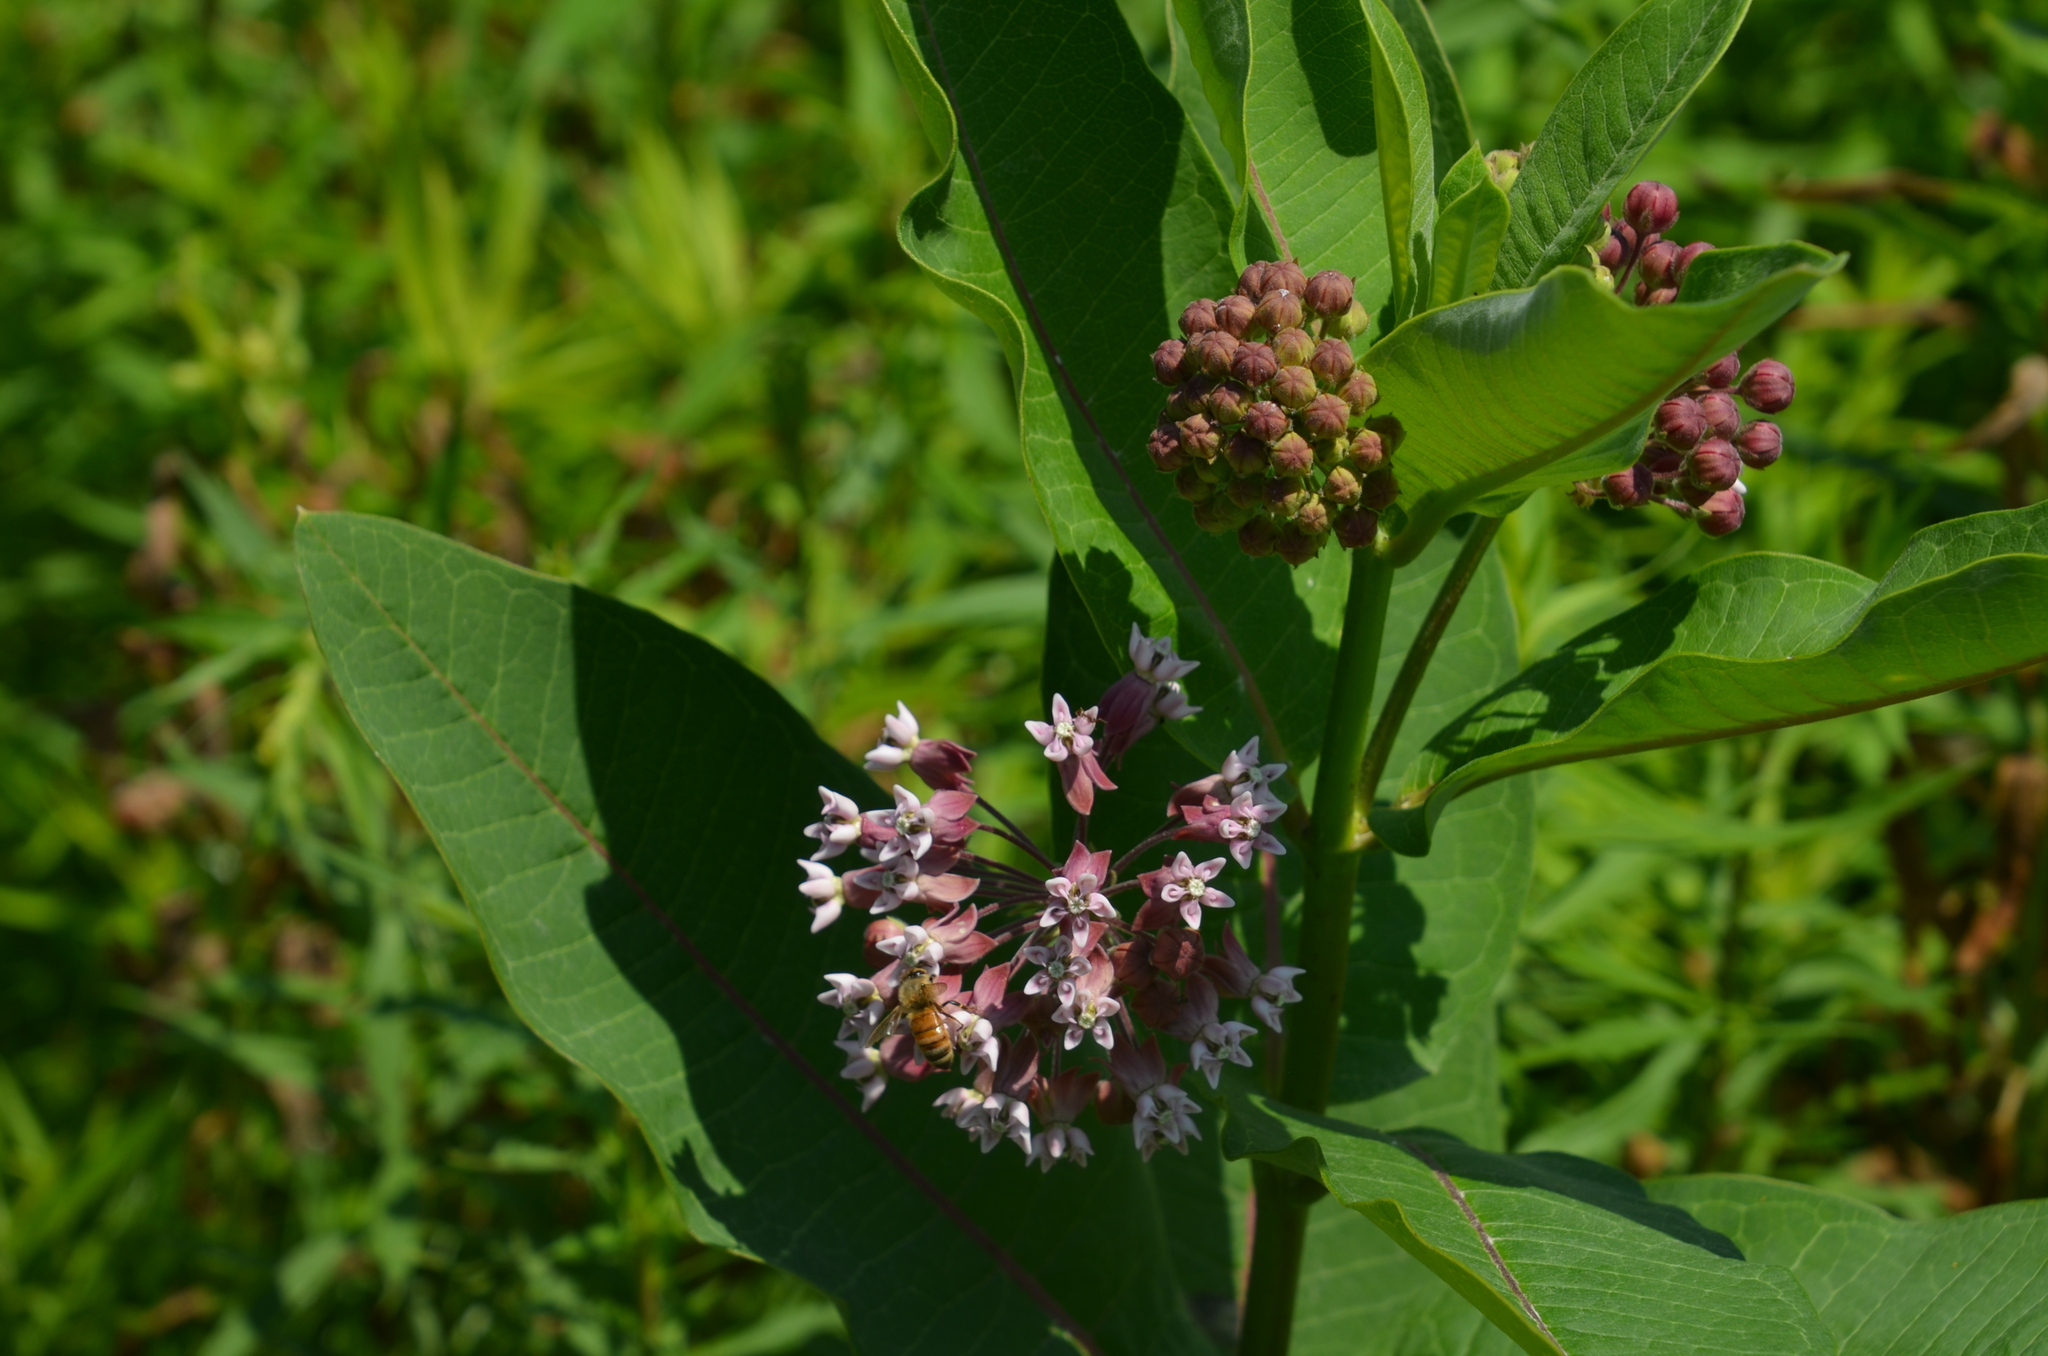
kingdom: Plantae
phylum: Tracheophyta
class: Magnoliopsida
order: Gentianales
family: Apocynaceae
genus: Asclepias
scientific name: Asclepias syriaca
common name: Common milkweed
